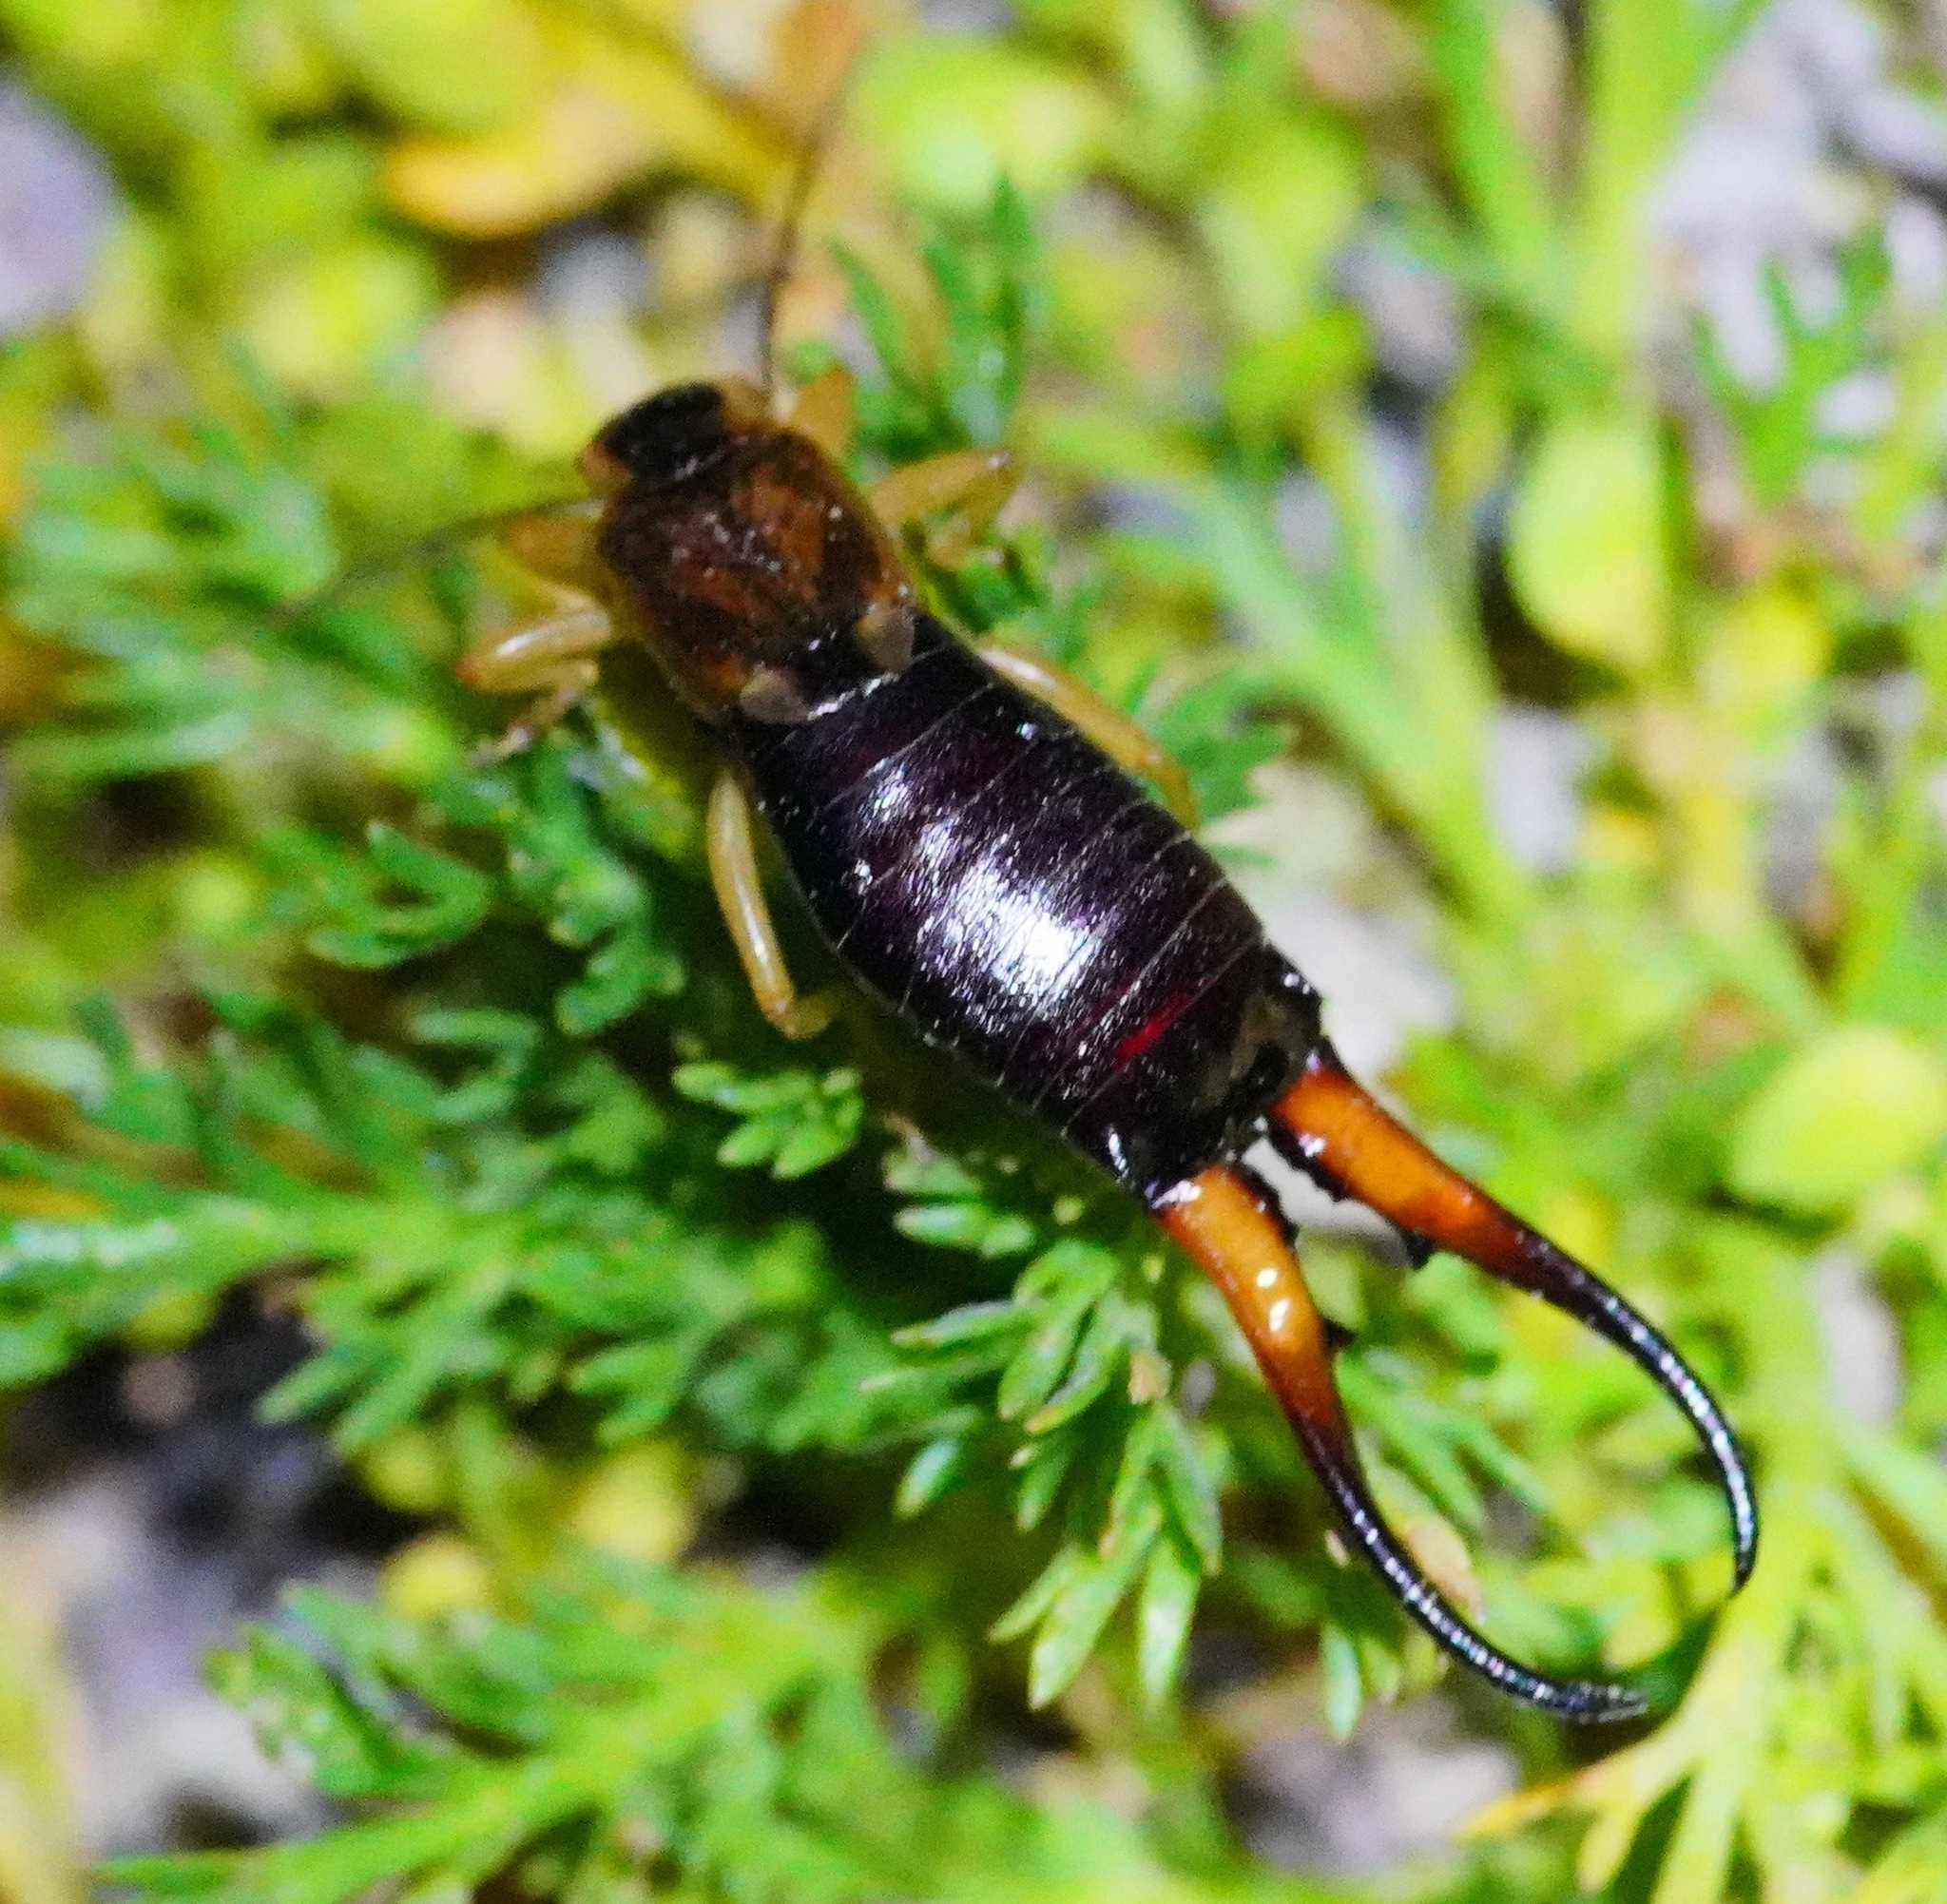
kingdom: Animalia
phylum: Arthropoda
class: Insecta
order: Dermaptera
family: Forficulidae
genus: Forficula
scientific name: Forficula
